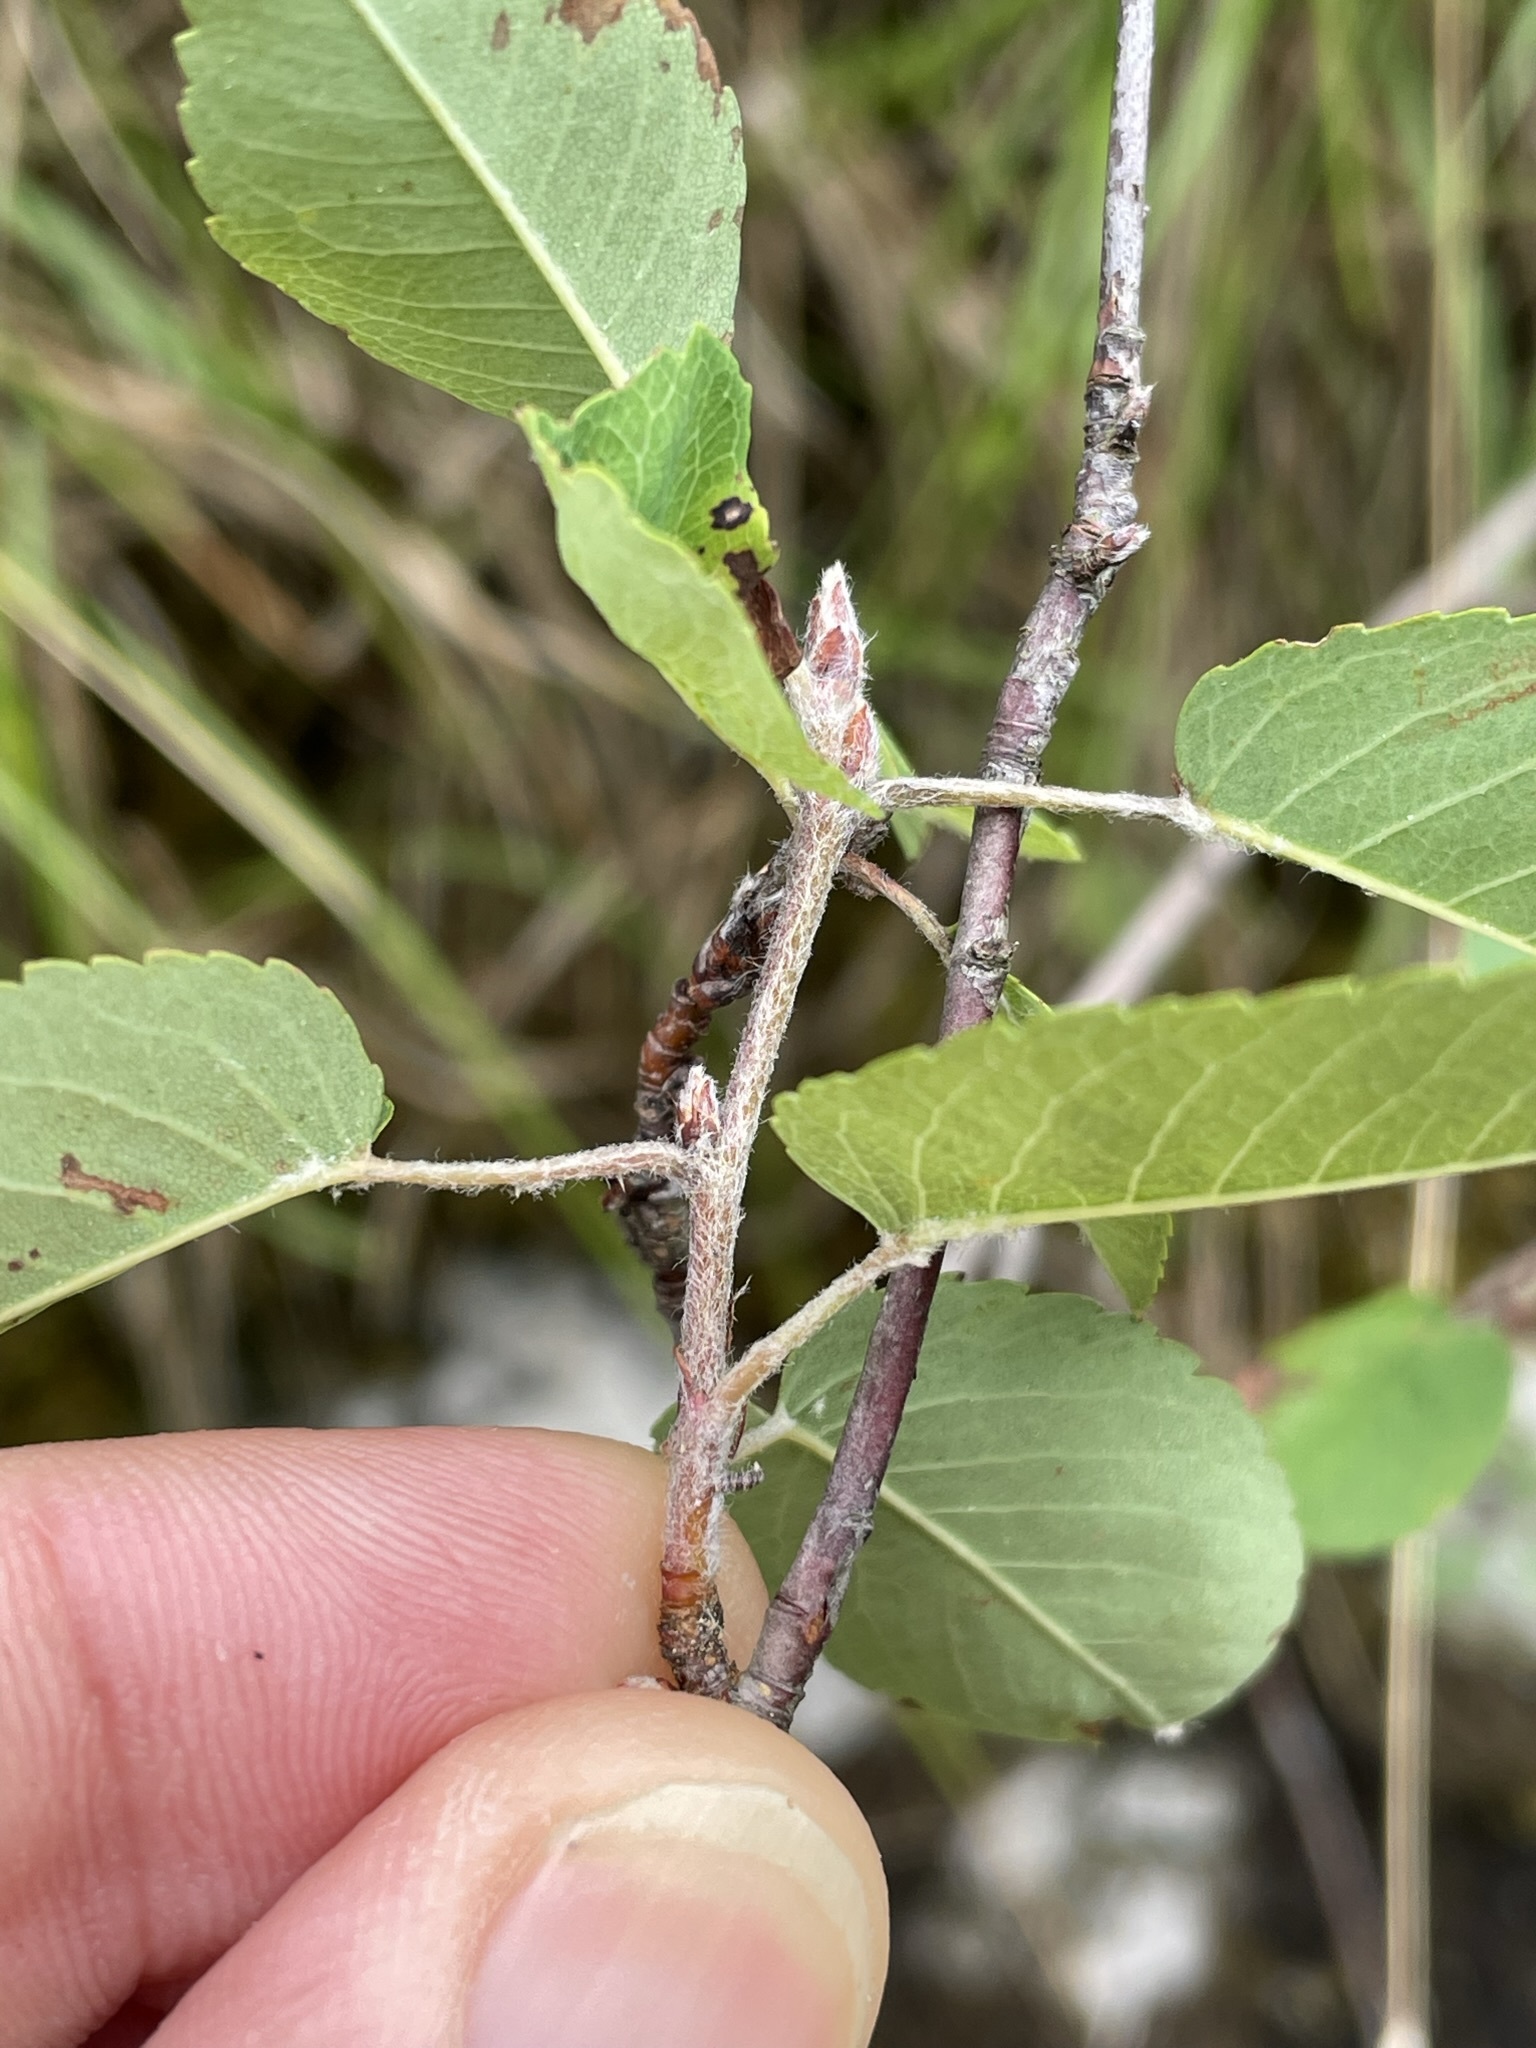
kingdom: Plantae
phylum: Tracheophyta
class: Magnoliopsida
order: Rosales
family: Rosaceae
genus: Amelanchier
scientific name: Amelanchier ovalis
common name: Serviceberry
